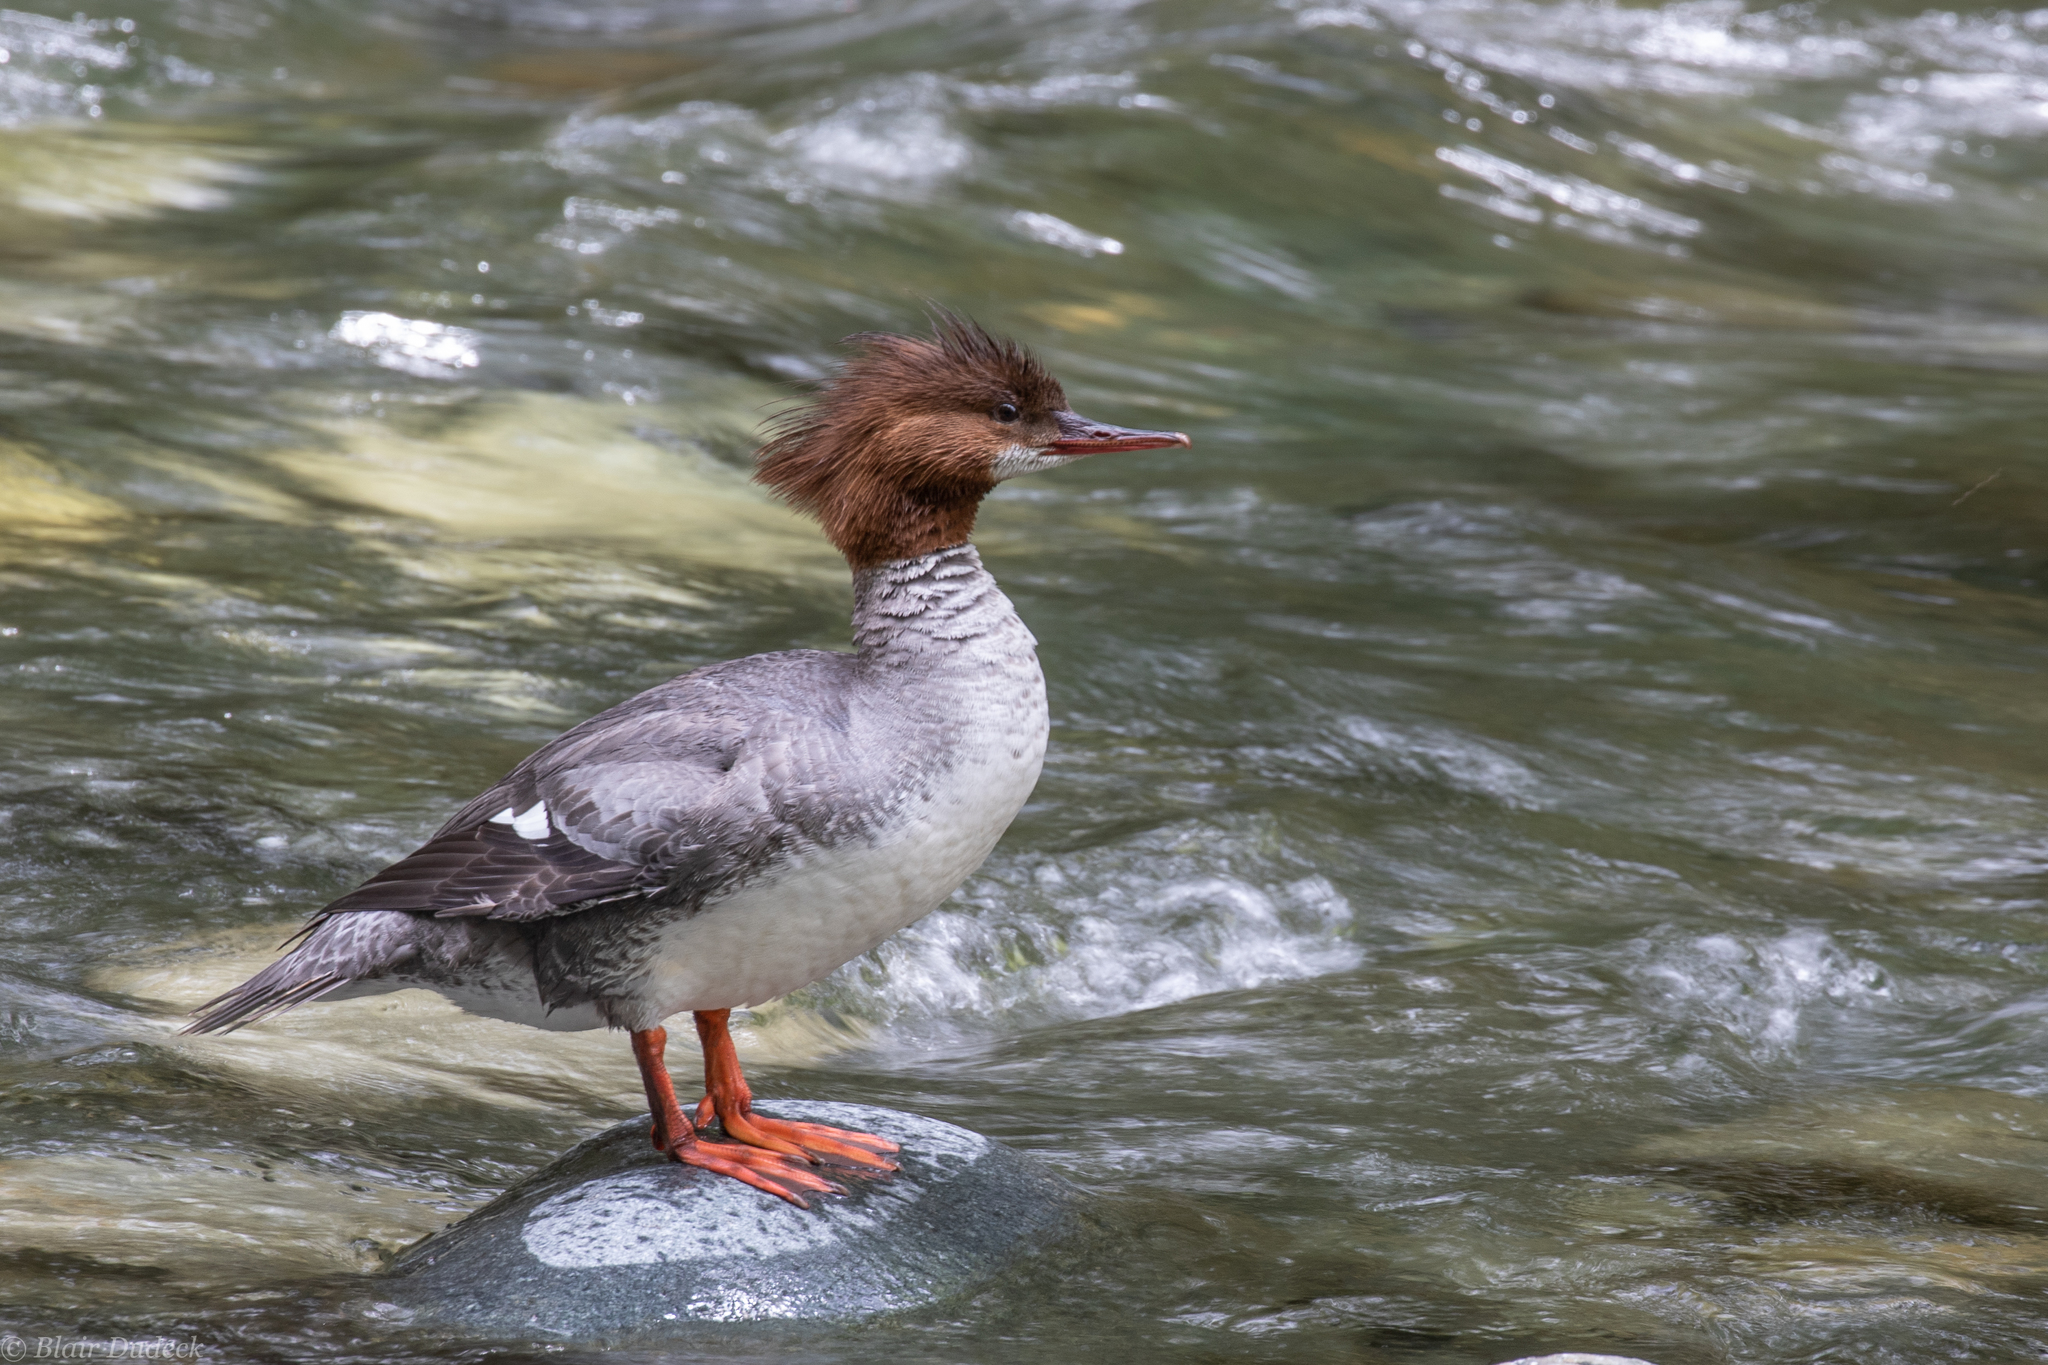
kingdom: Animalia
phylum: Chordata
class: Aves
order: Anseriformes
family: Anatidae
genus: Mergus
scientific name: Mergus merganser
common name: Common merganser
